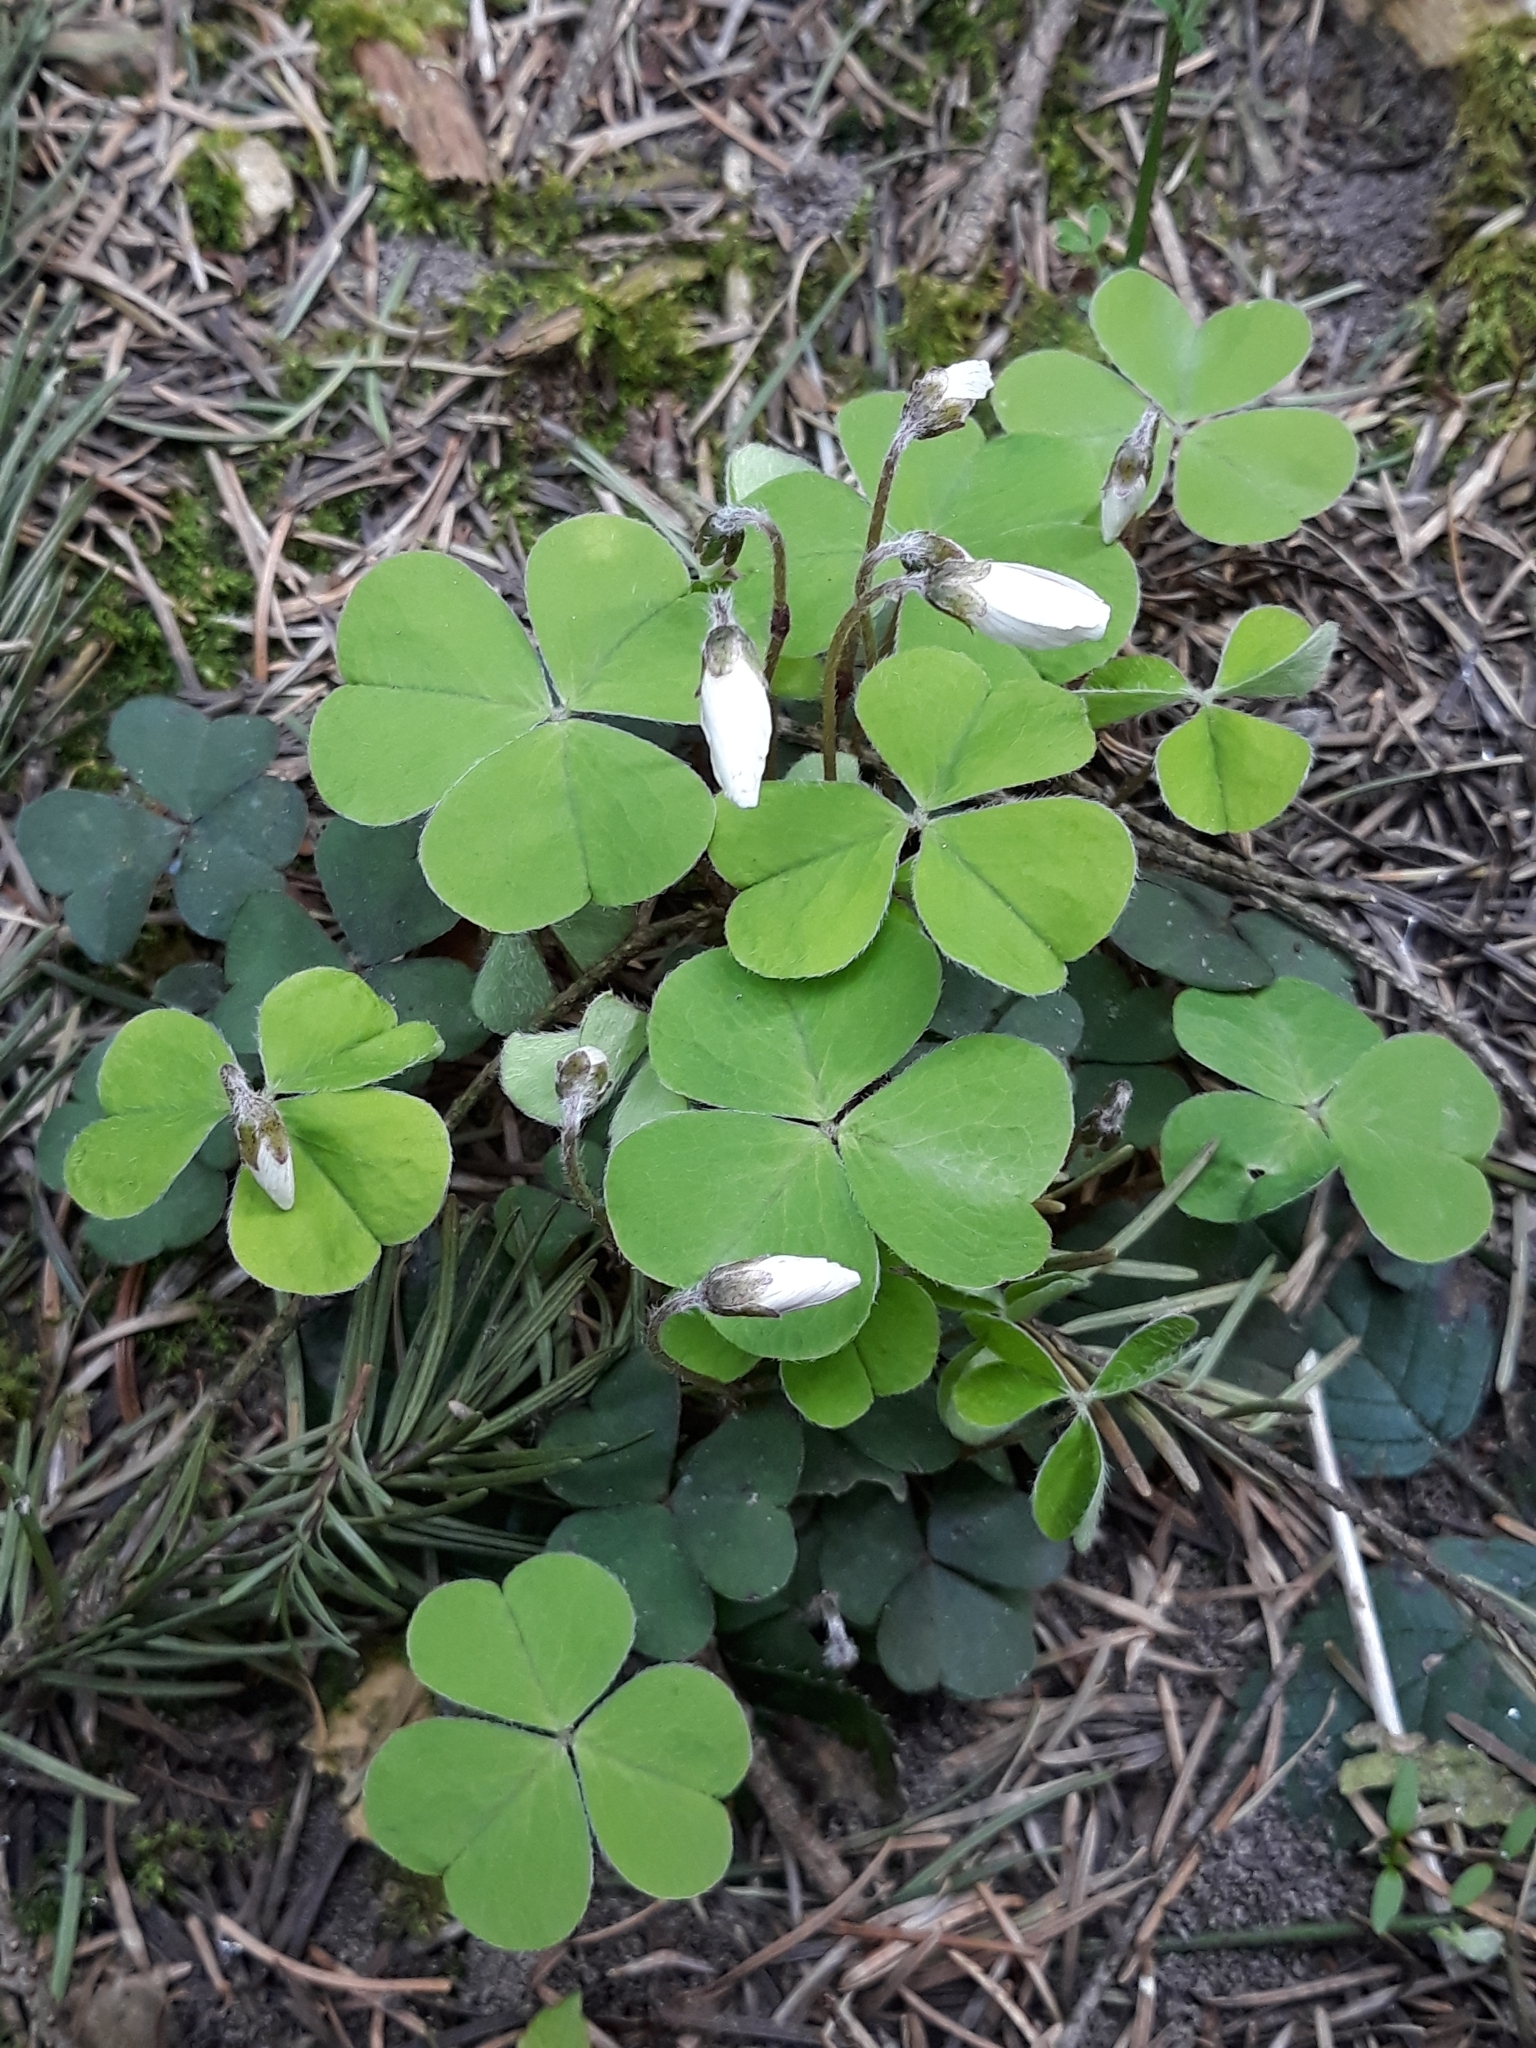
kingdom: Plantae
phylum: Tracheophyta
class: Magnoliopsida
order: Oxalidales
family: Oxalidaceae
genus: Oxalis
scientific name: Oxalis acetosella
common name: Wood-sorrel
